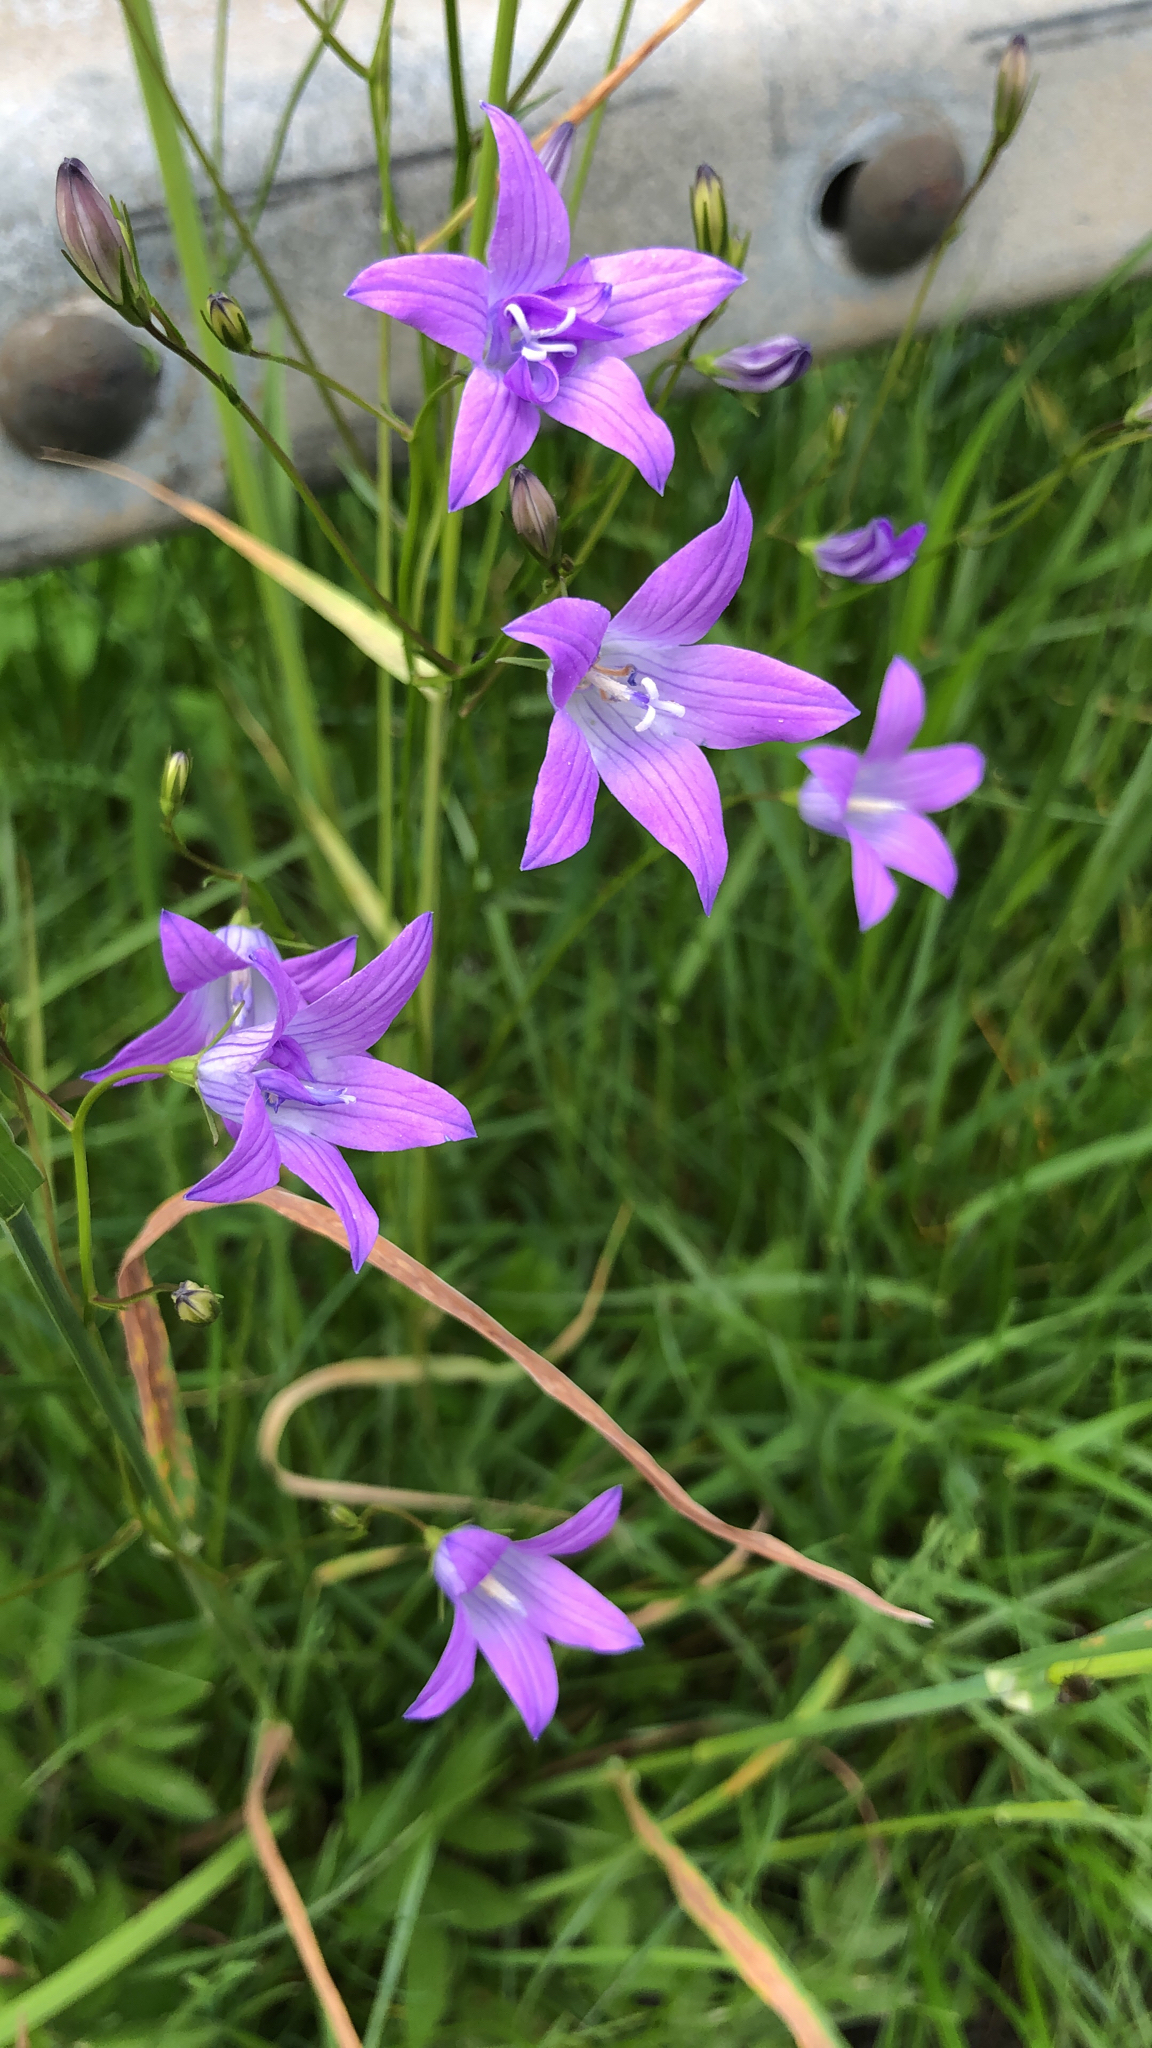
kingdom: Plantae
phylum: Tracheophyta
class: Magnoliopsida
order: Asterales
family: Campanulaceae
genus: Campanula
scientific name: Campanula patula
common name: Spreading bellflower
